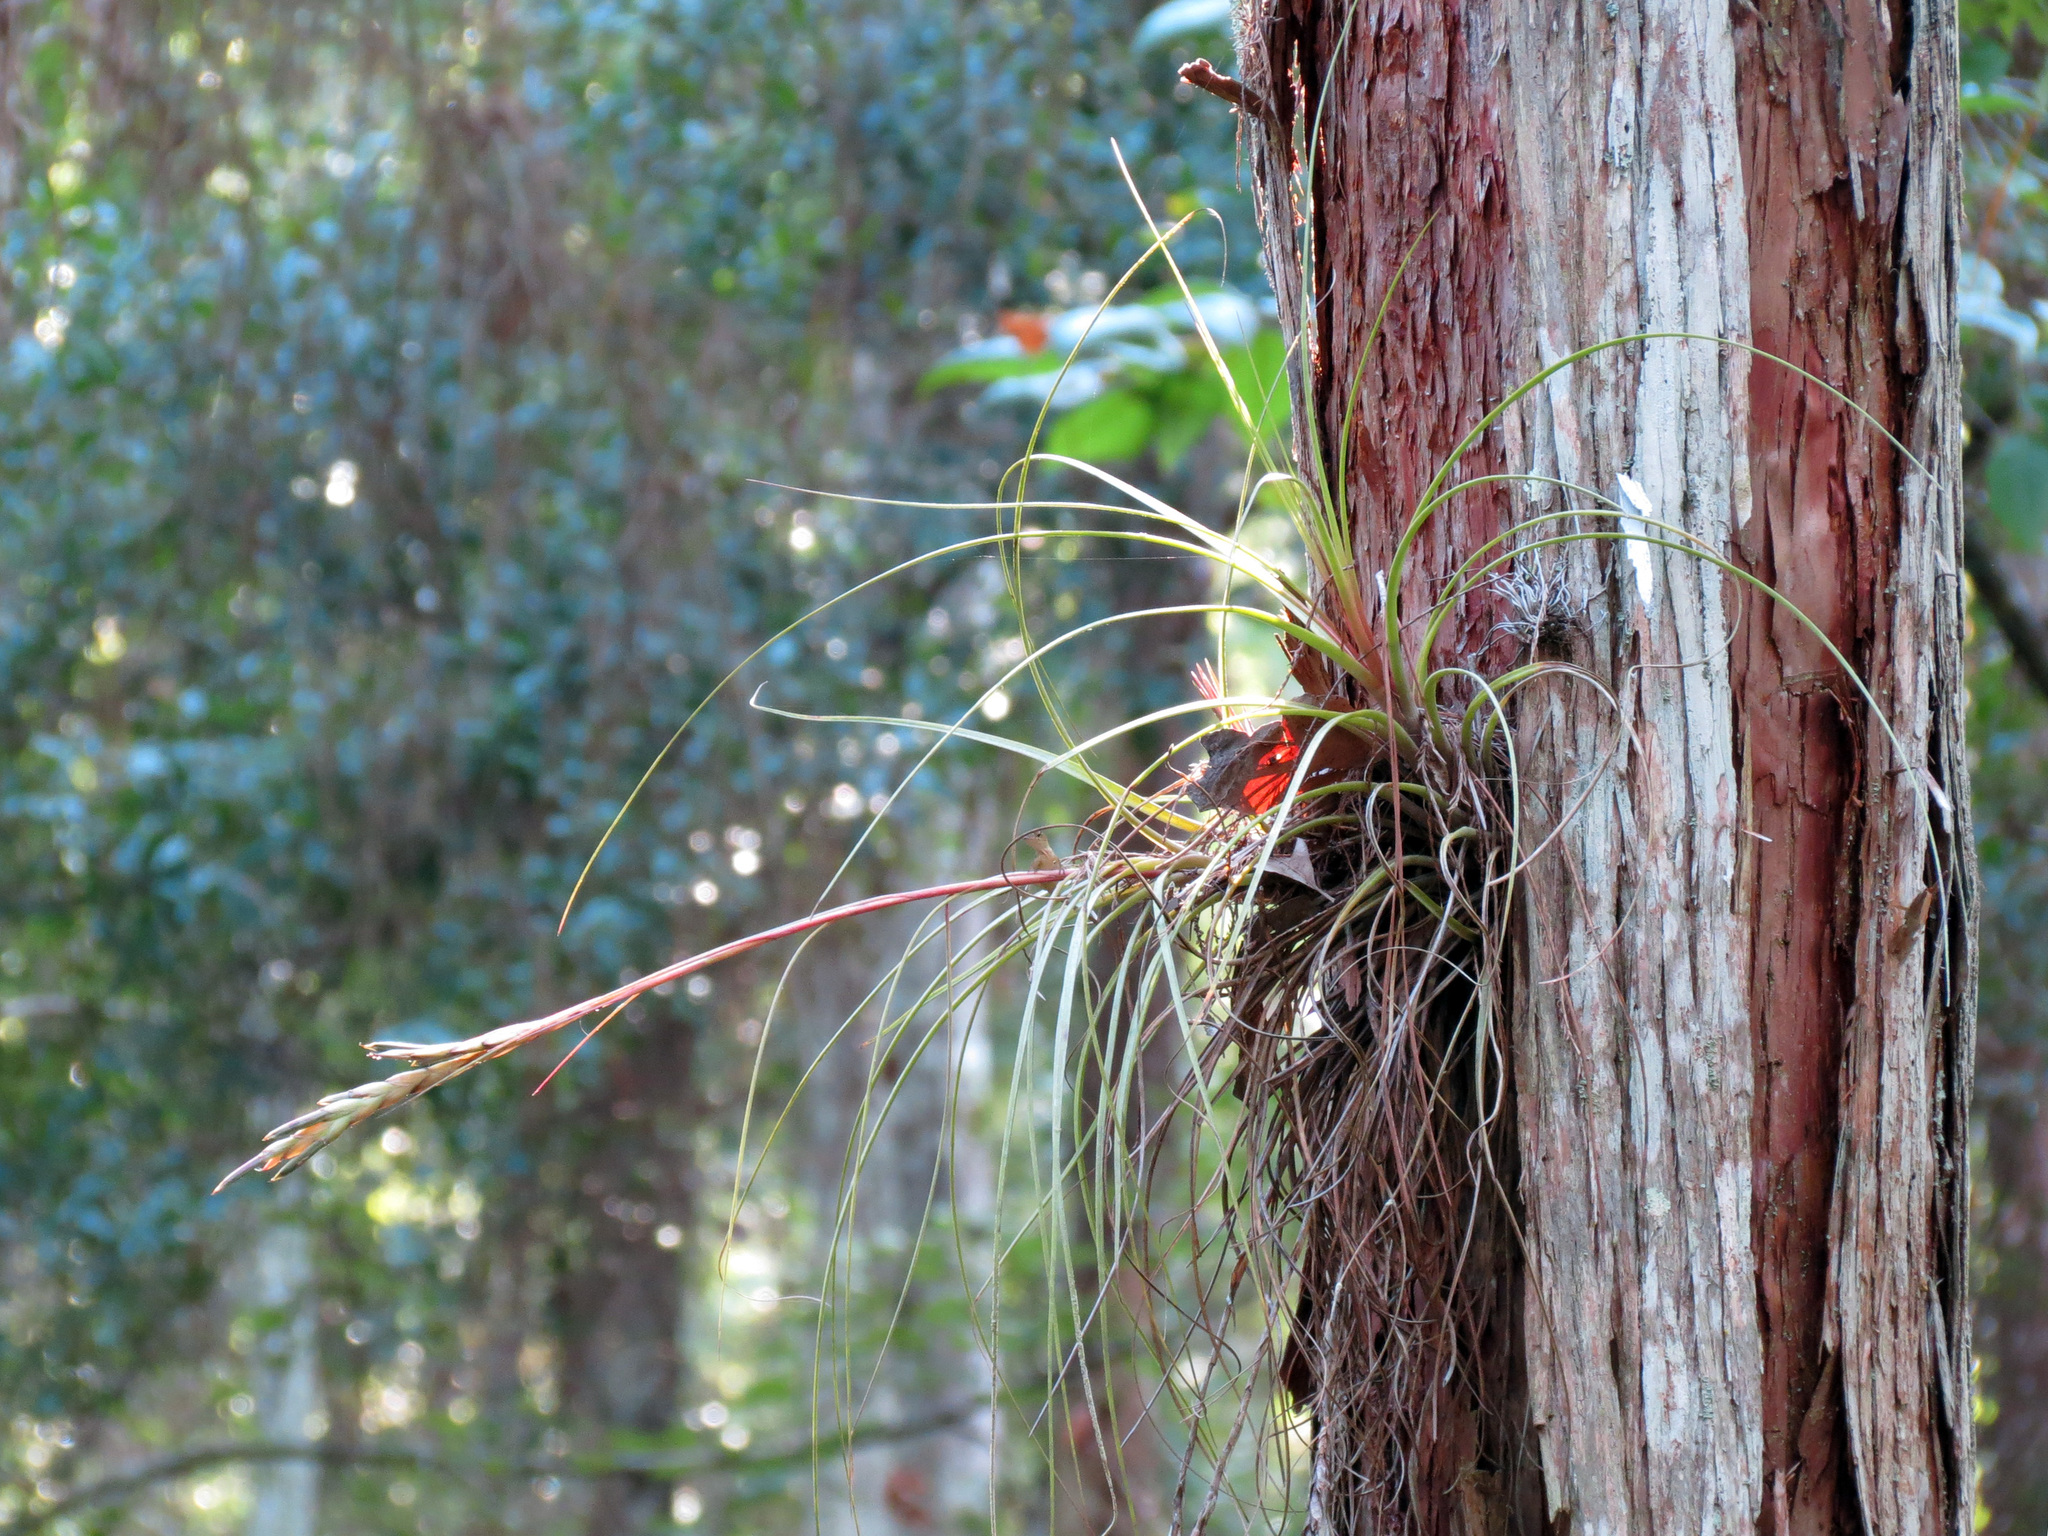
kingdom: Plantae
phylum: Tracheophyta
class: Liliopsida
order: Poales
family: Bromeliaceae
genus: Tillandsia
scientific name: Tillandsia bartramii
